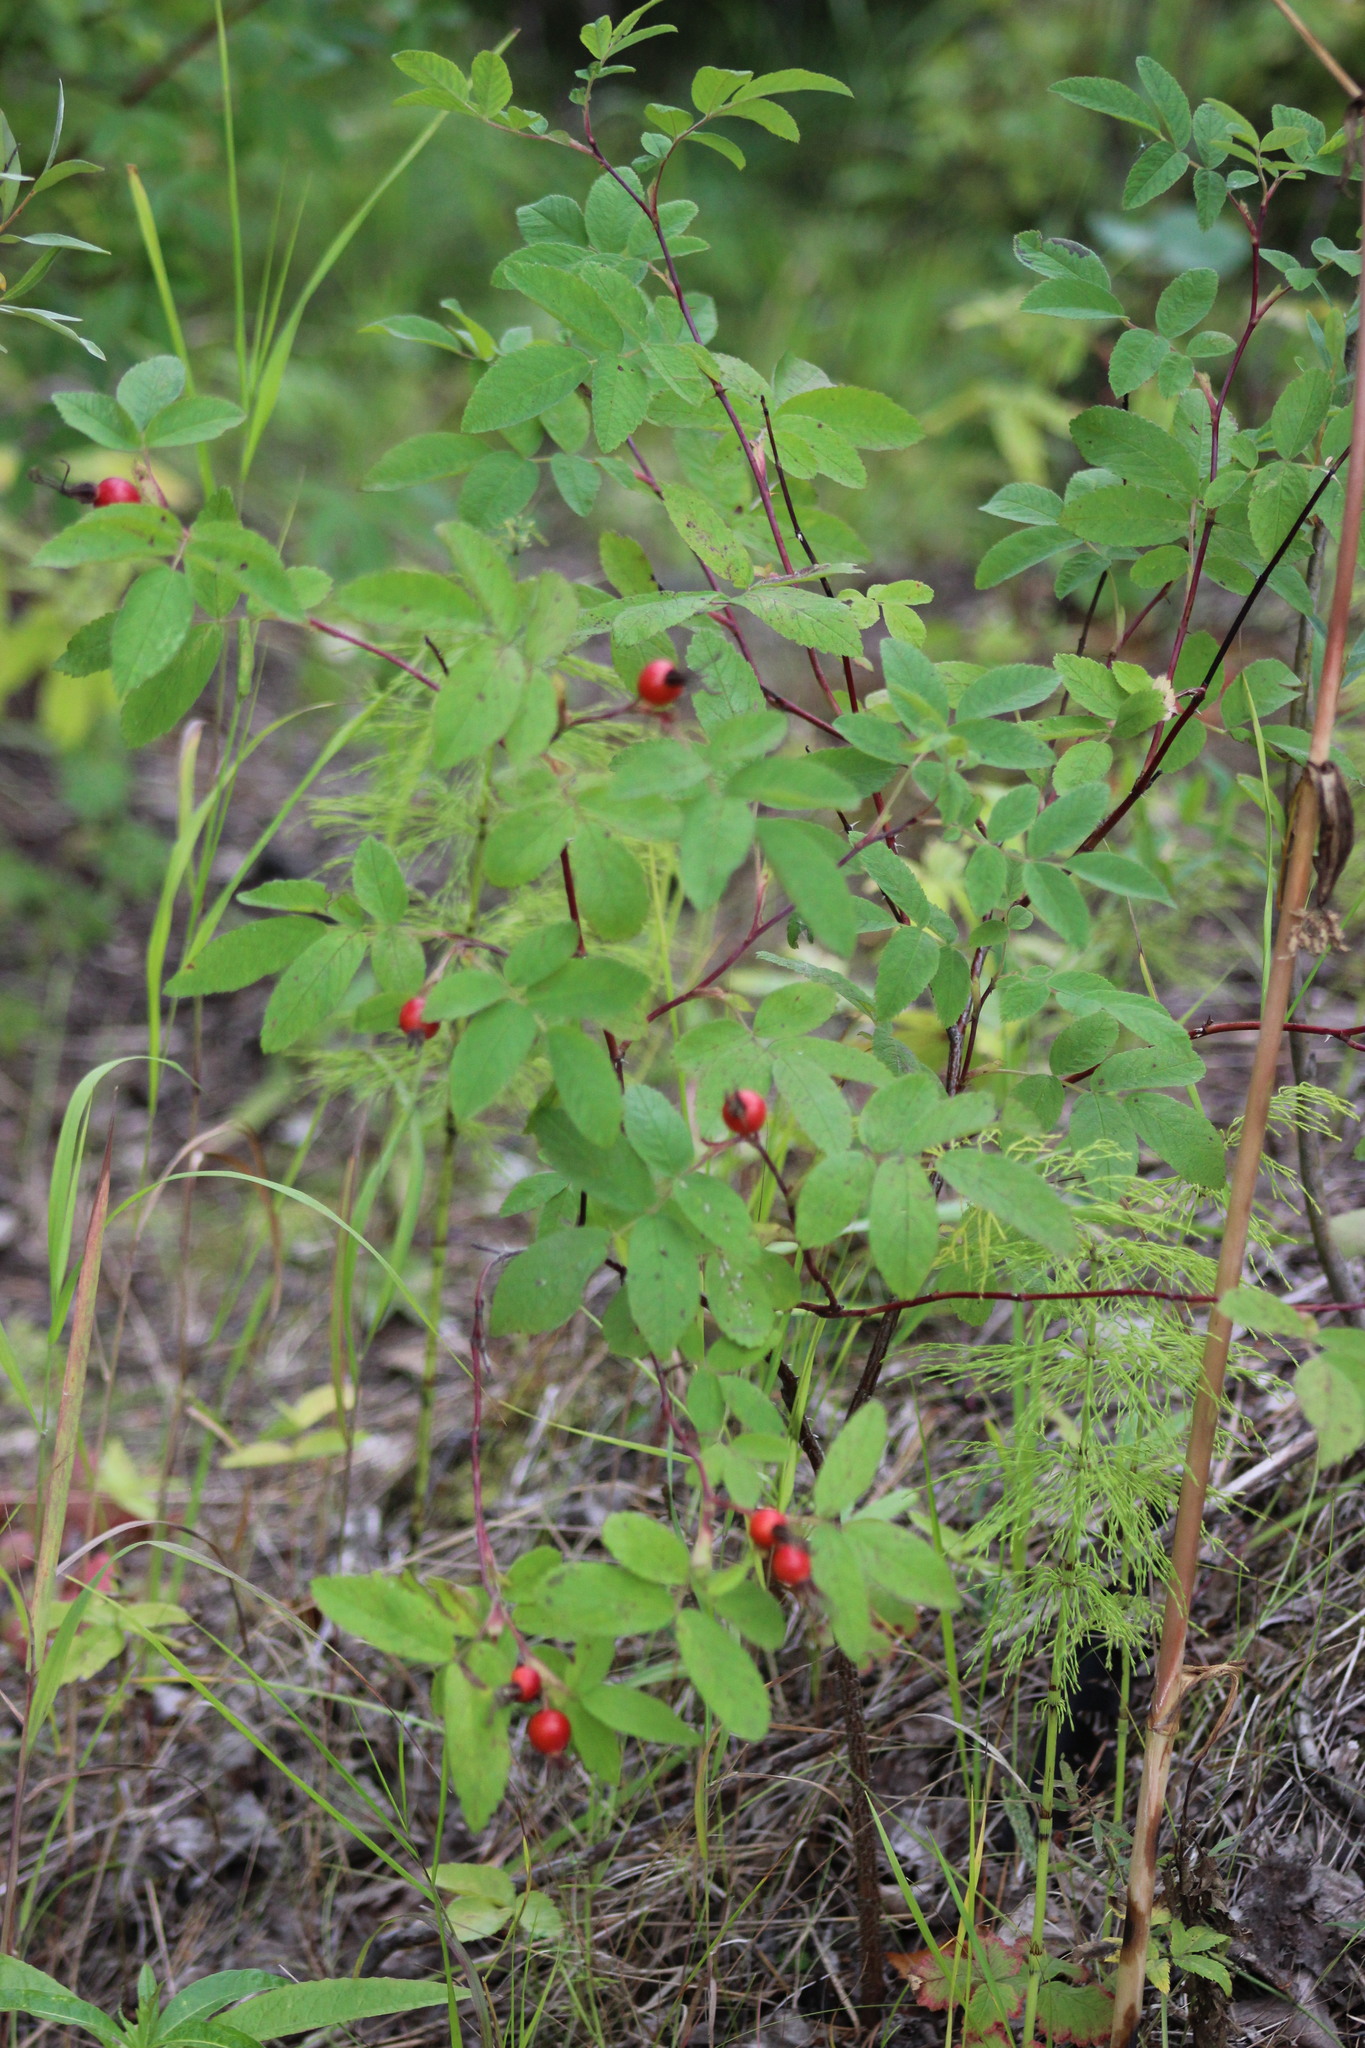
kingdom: Plantae
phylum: Tracheophyta
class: Magnoliopsida
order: Rosales
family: Rosaceae
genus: Rosa
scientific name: Rosa majalis
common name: Cinnamon rose
